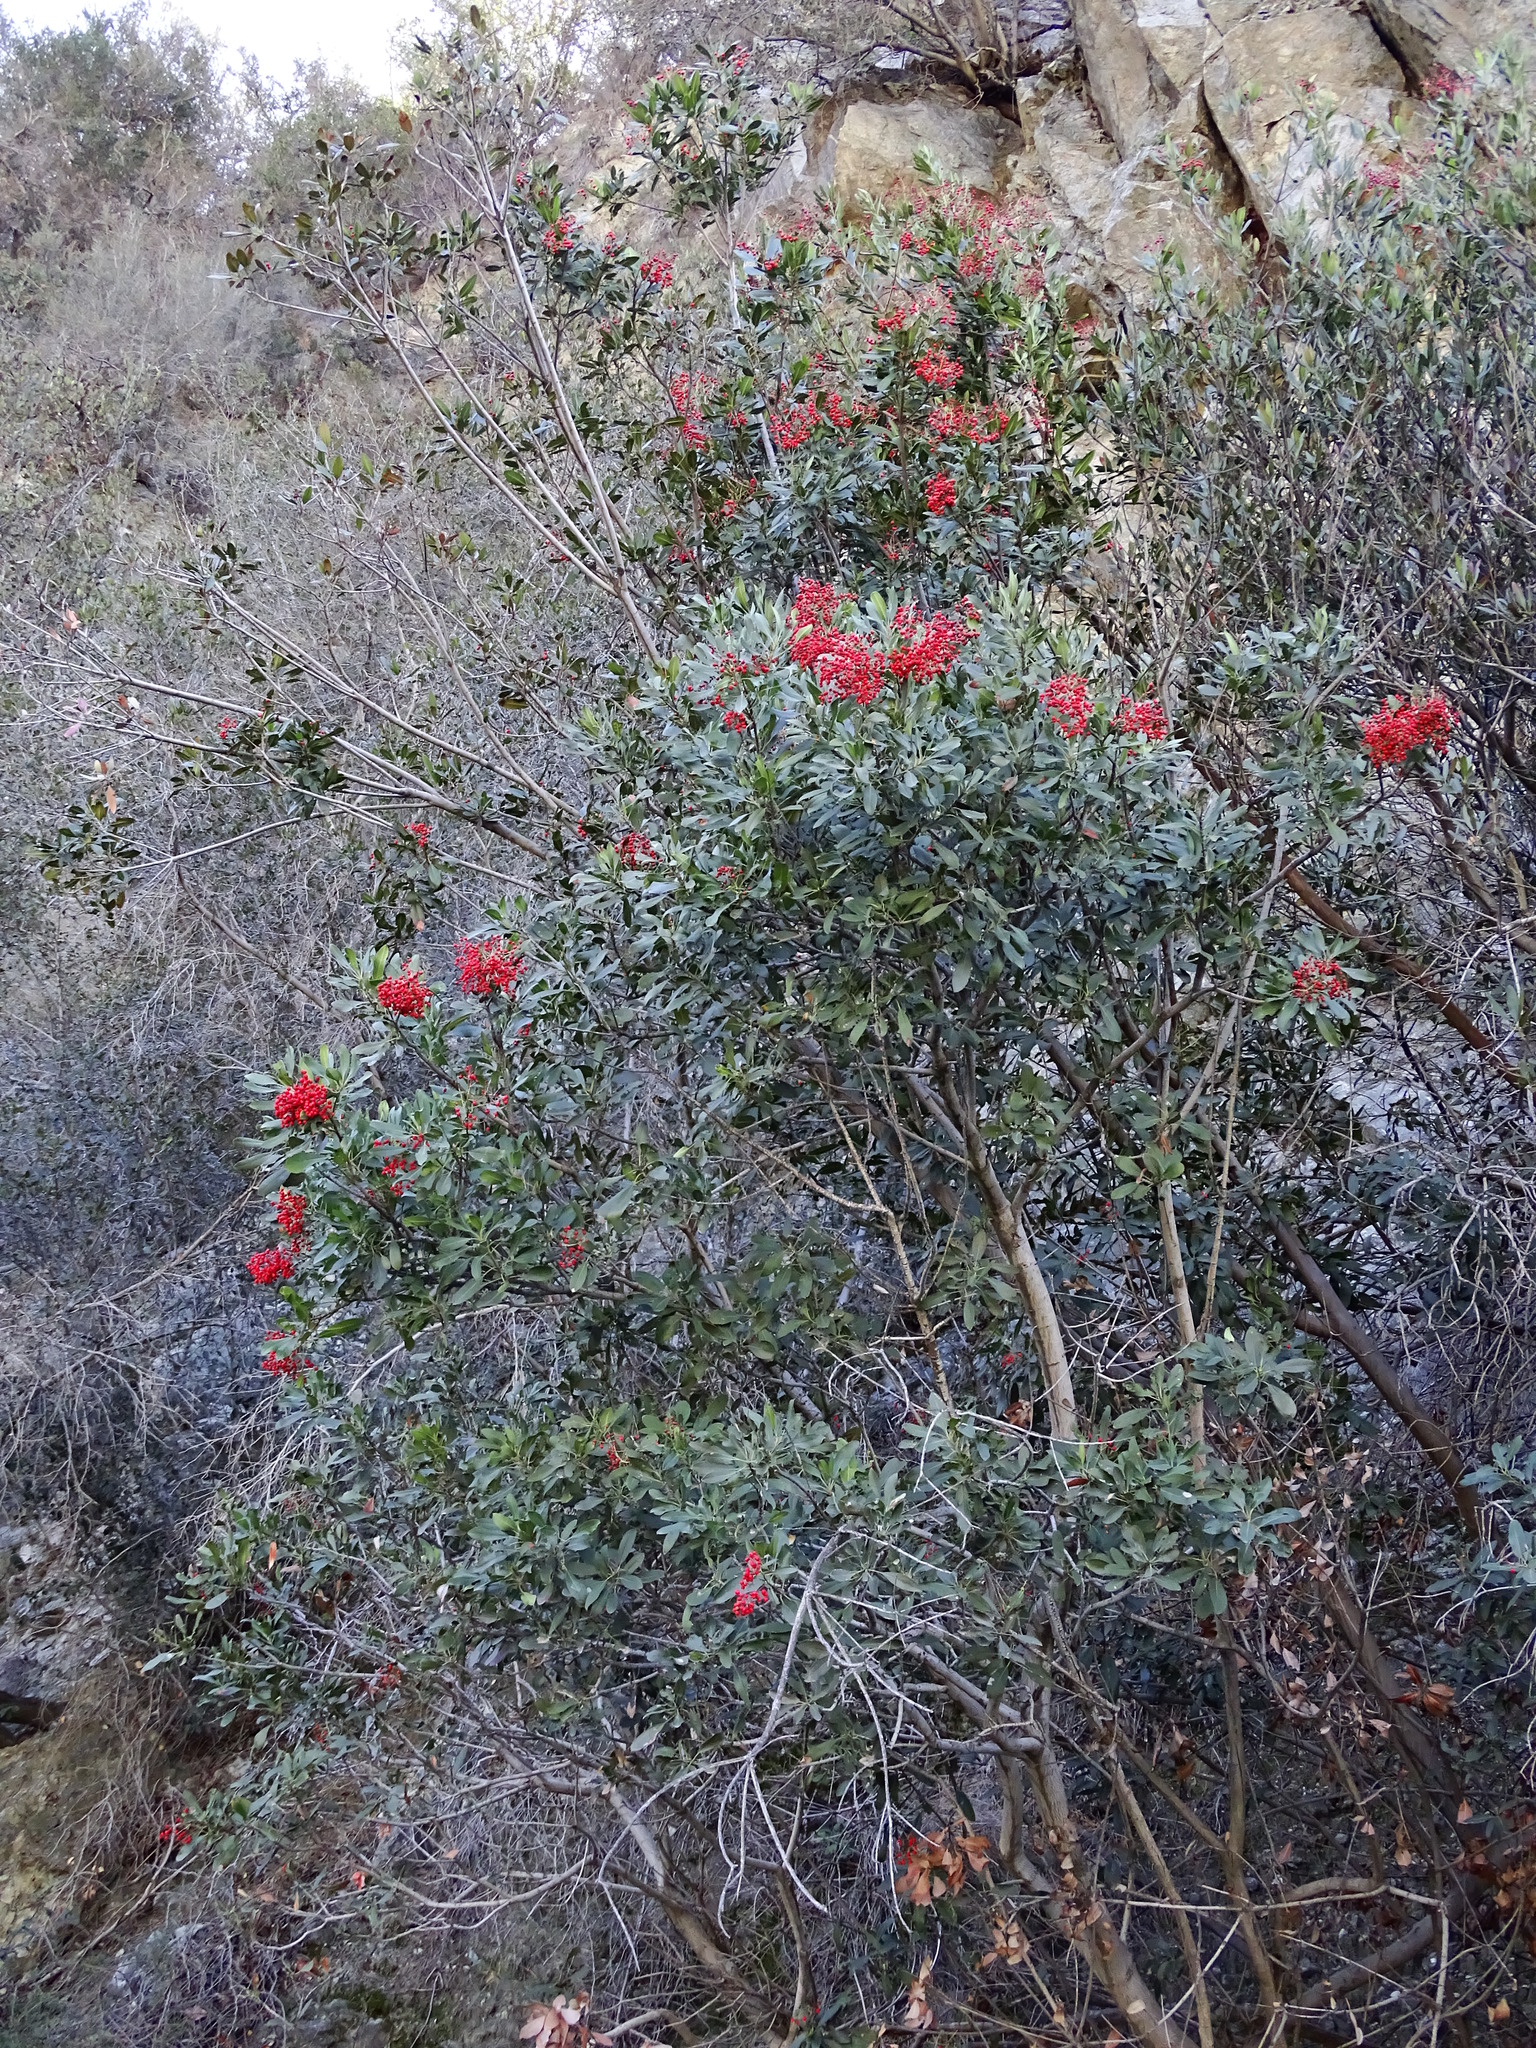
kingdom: Plantae
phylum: Tracheophyta
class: Magnoliopsida
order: Rosales
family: Rosaceae
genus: Heteromeles
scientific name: Heteromeles arbutifolia
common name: California-holly
